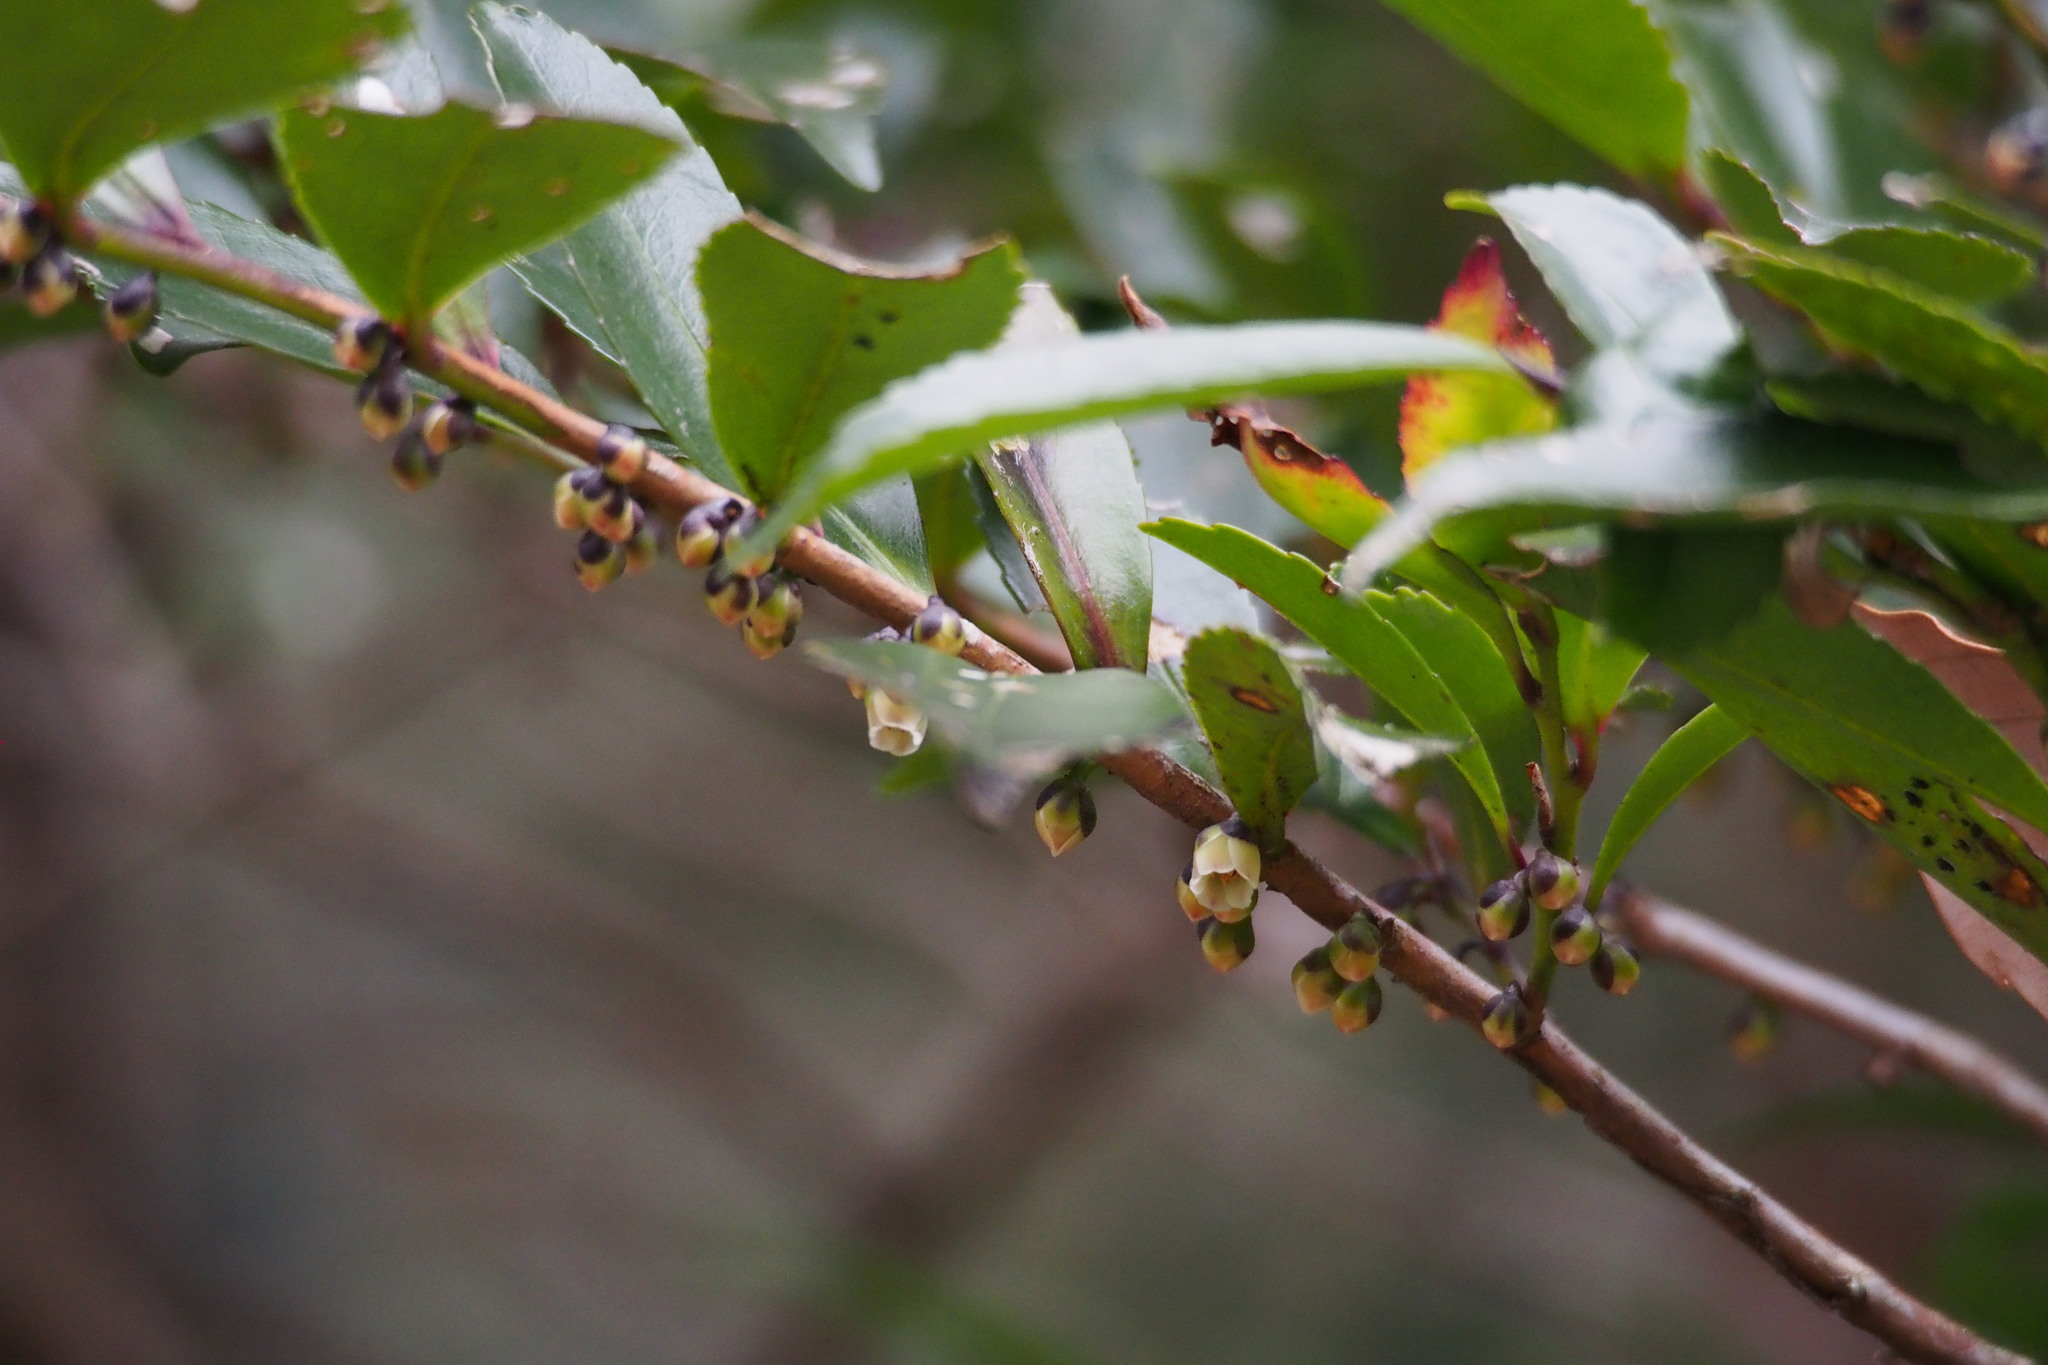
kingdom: Plantae
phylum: Tracheophyta
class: Magnoliopsida
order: Ericales
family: Pentaphylacaceae
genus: Eurya
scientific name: Eurya japonica
